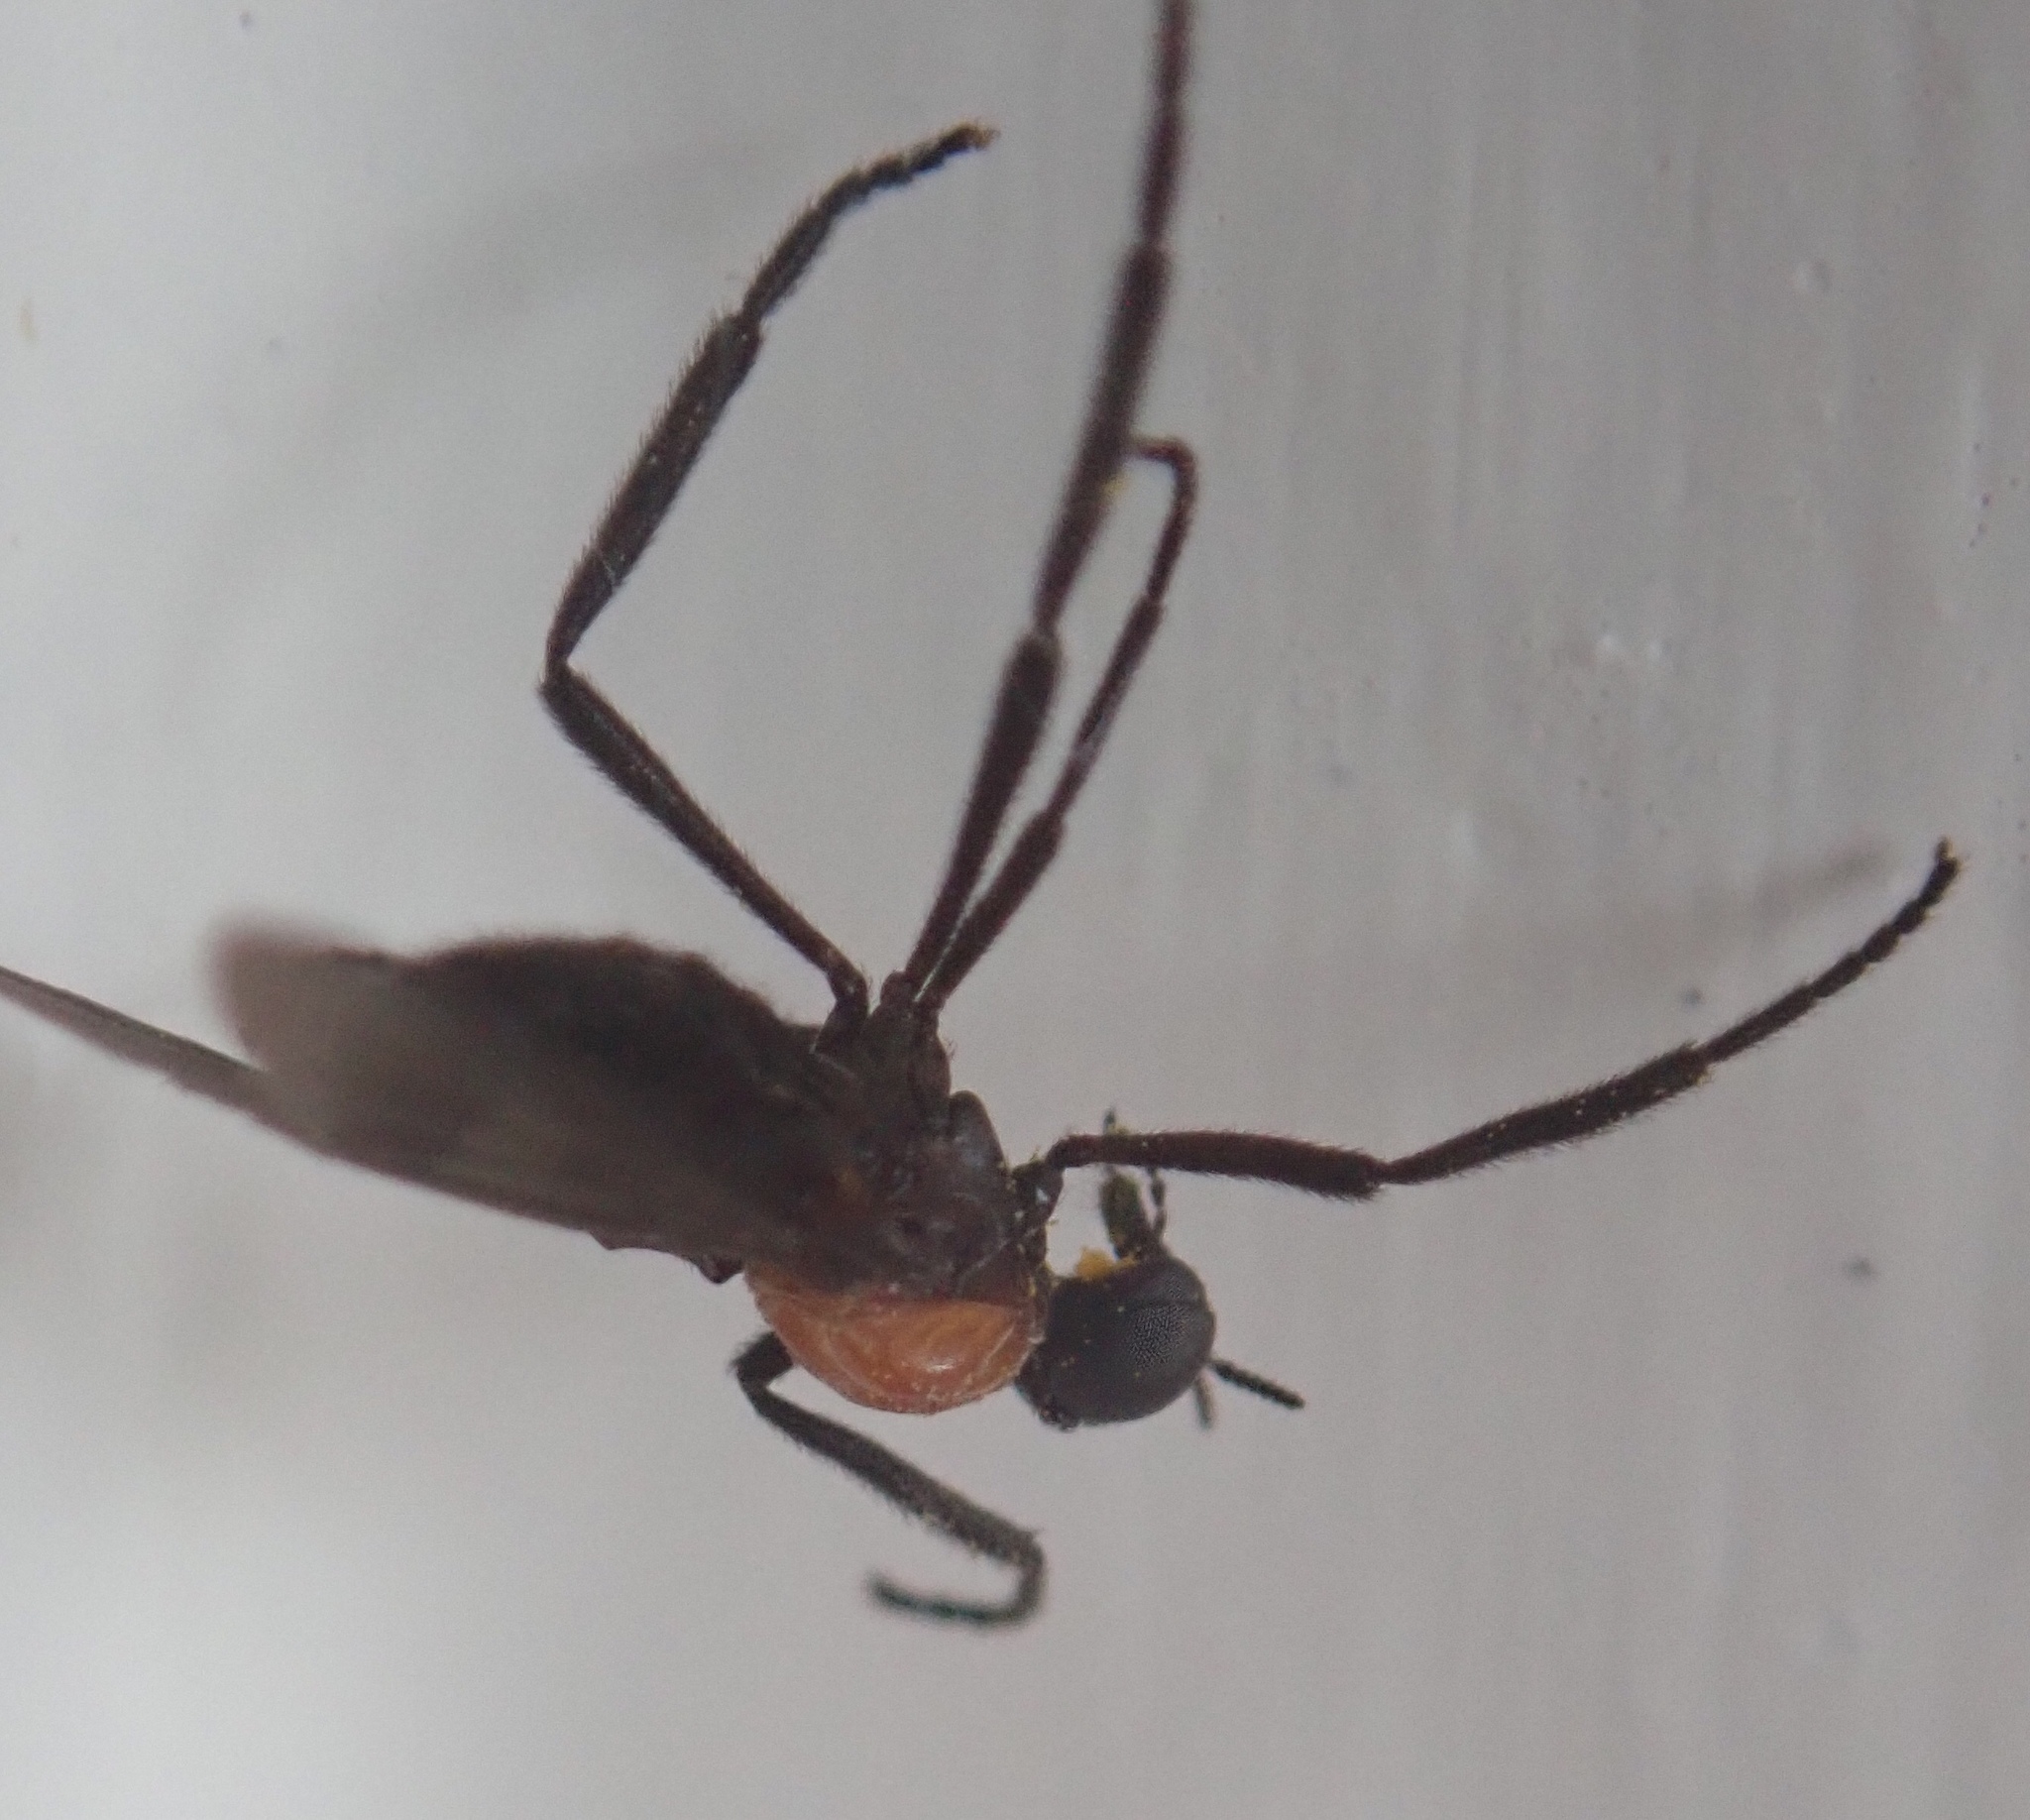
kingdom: Animalia
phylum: Arthropoda
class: Insecta
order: Diptera
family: Bibionidae
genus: Plecia
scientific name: Plecia nearctica
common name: March fly
